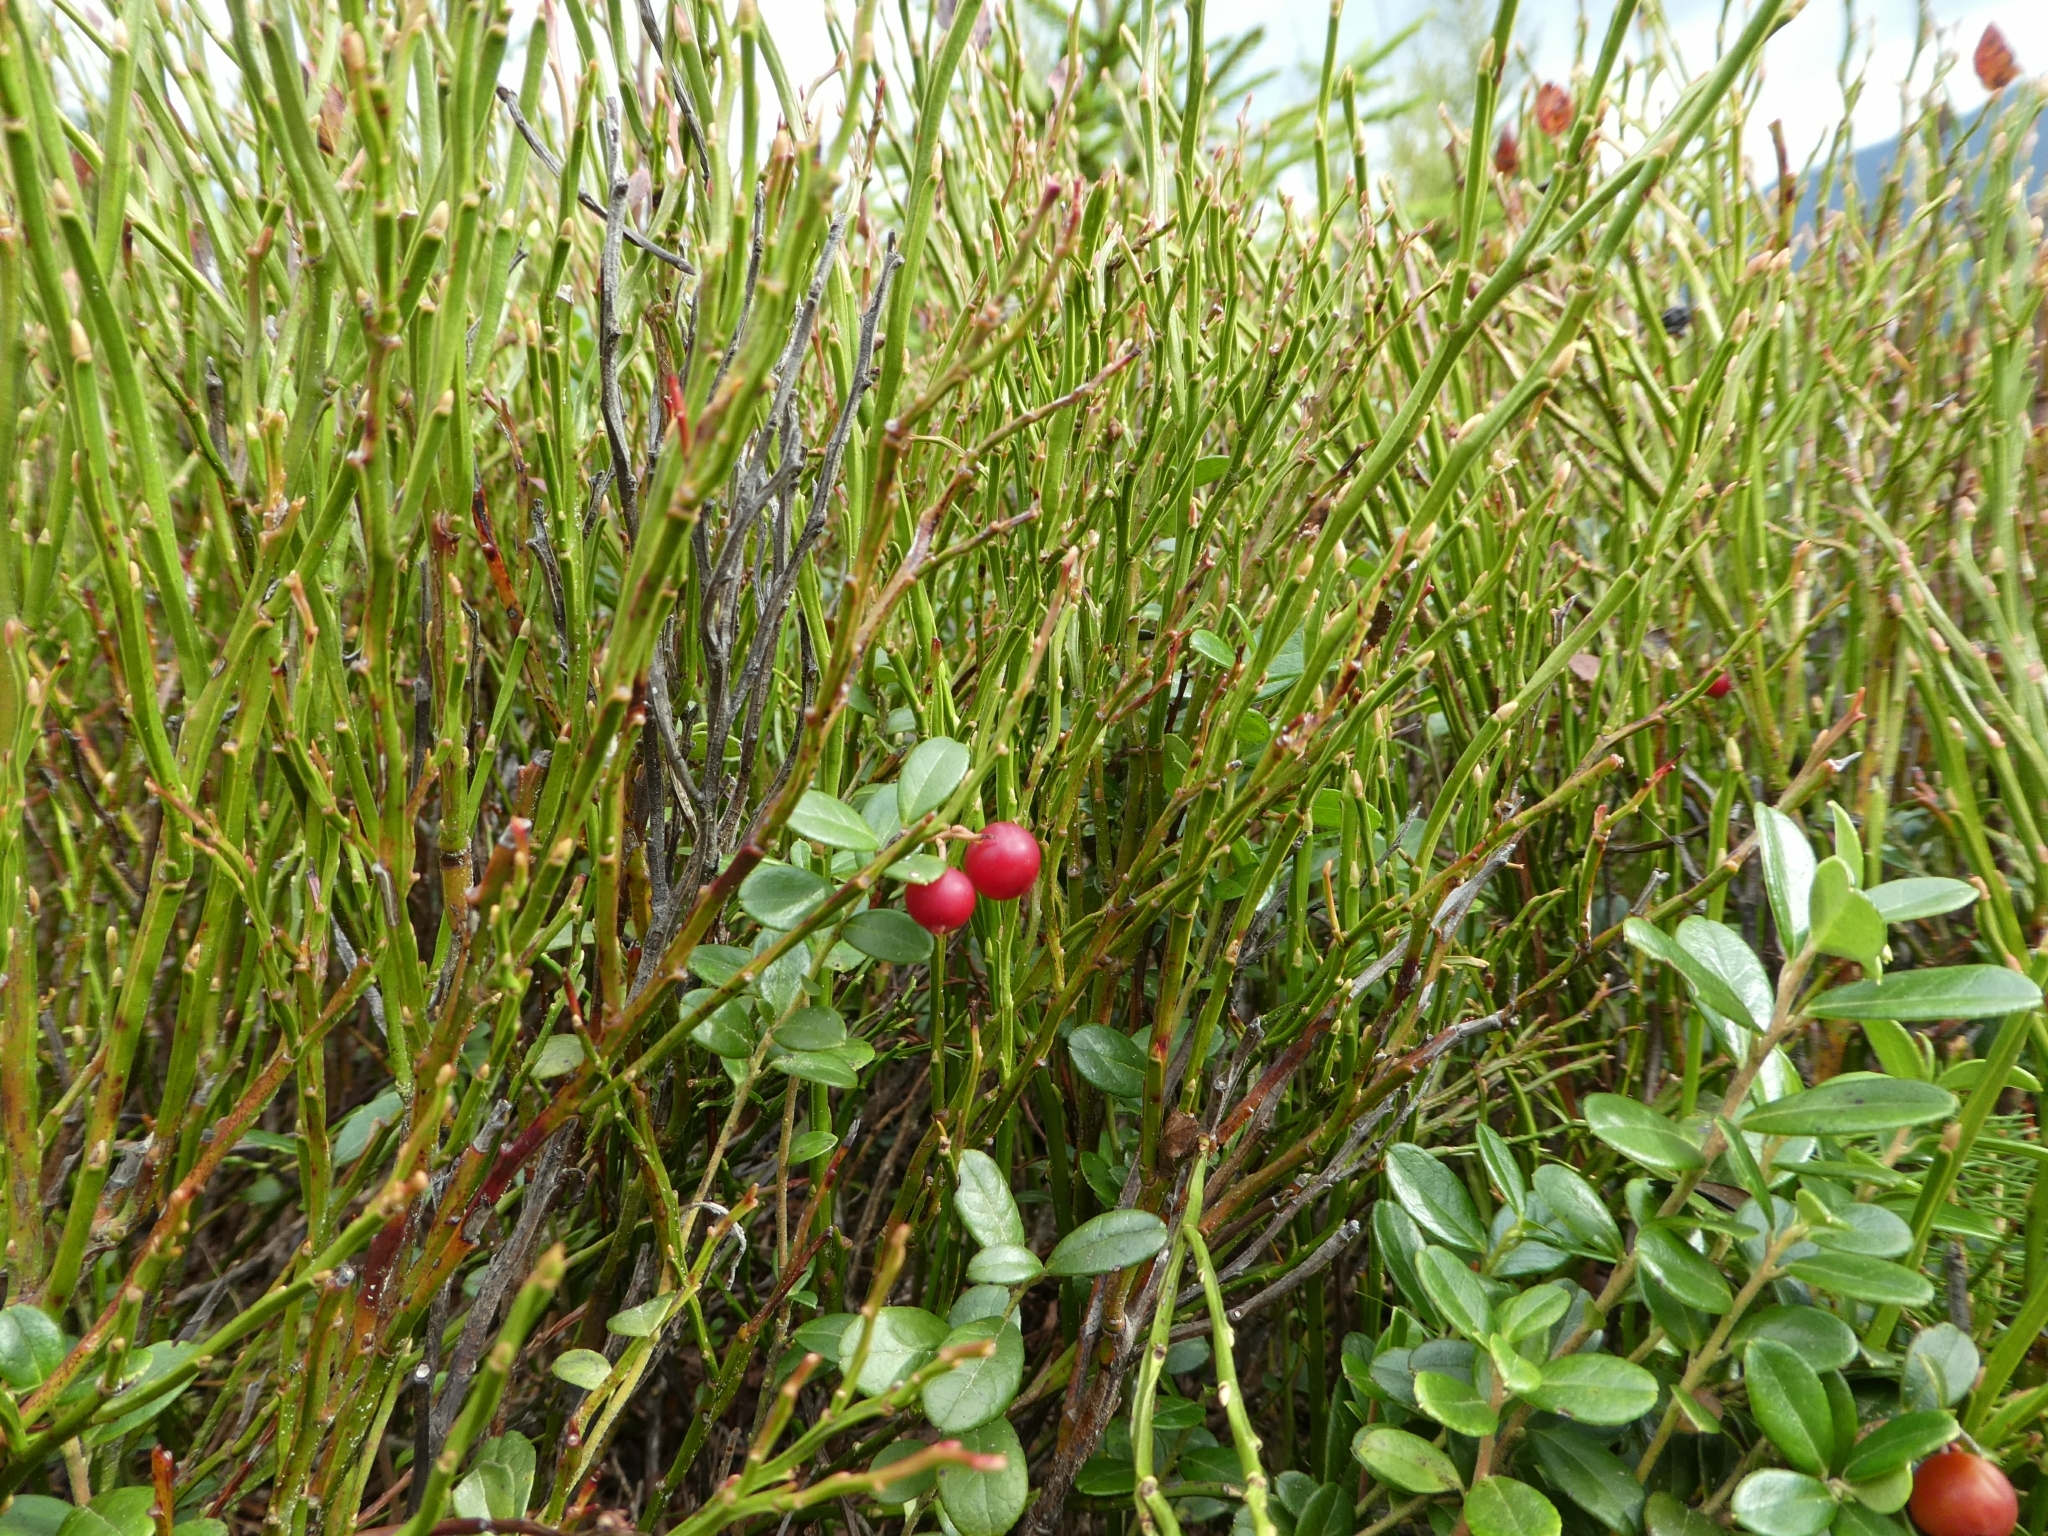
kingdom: Plantae
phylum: Tracheophyta
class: Magnoliopsida
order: Ericales
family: Ericaceae
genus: Vaccinium
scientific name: Vaccinium vitis-idaea
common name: Cowberry
